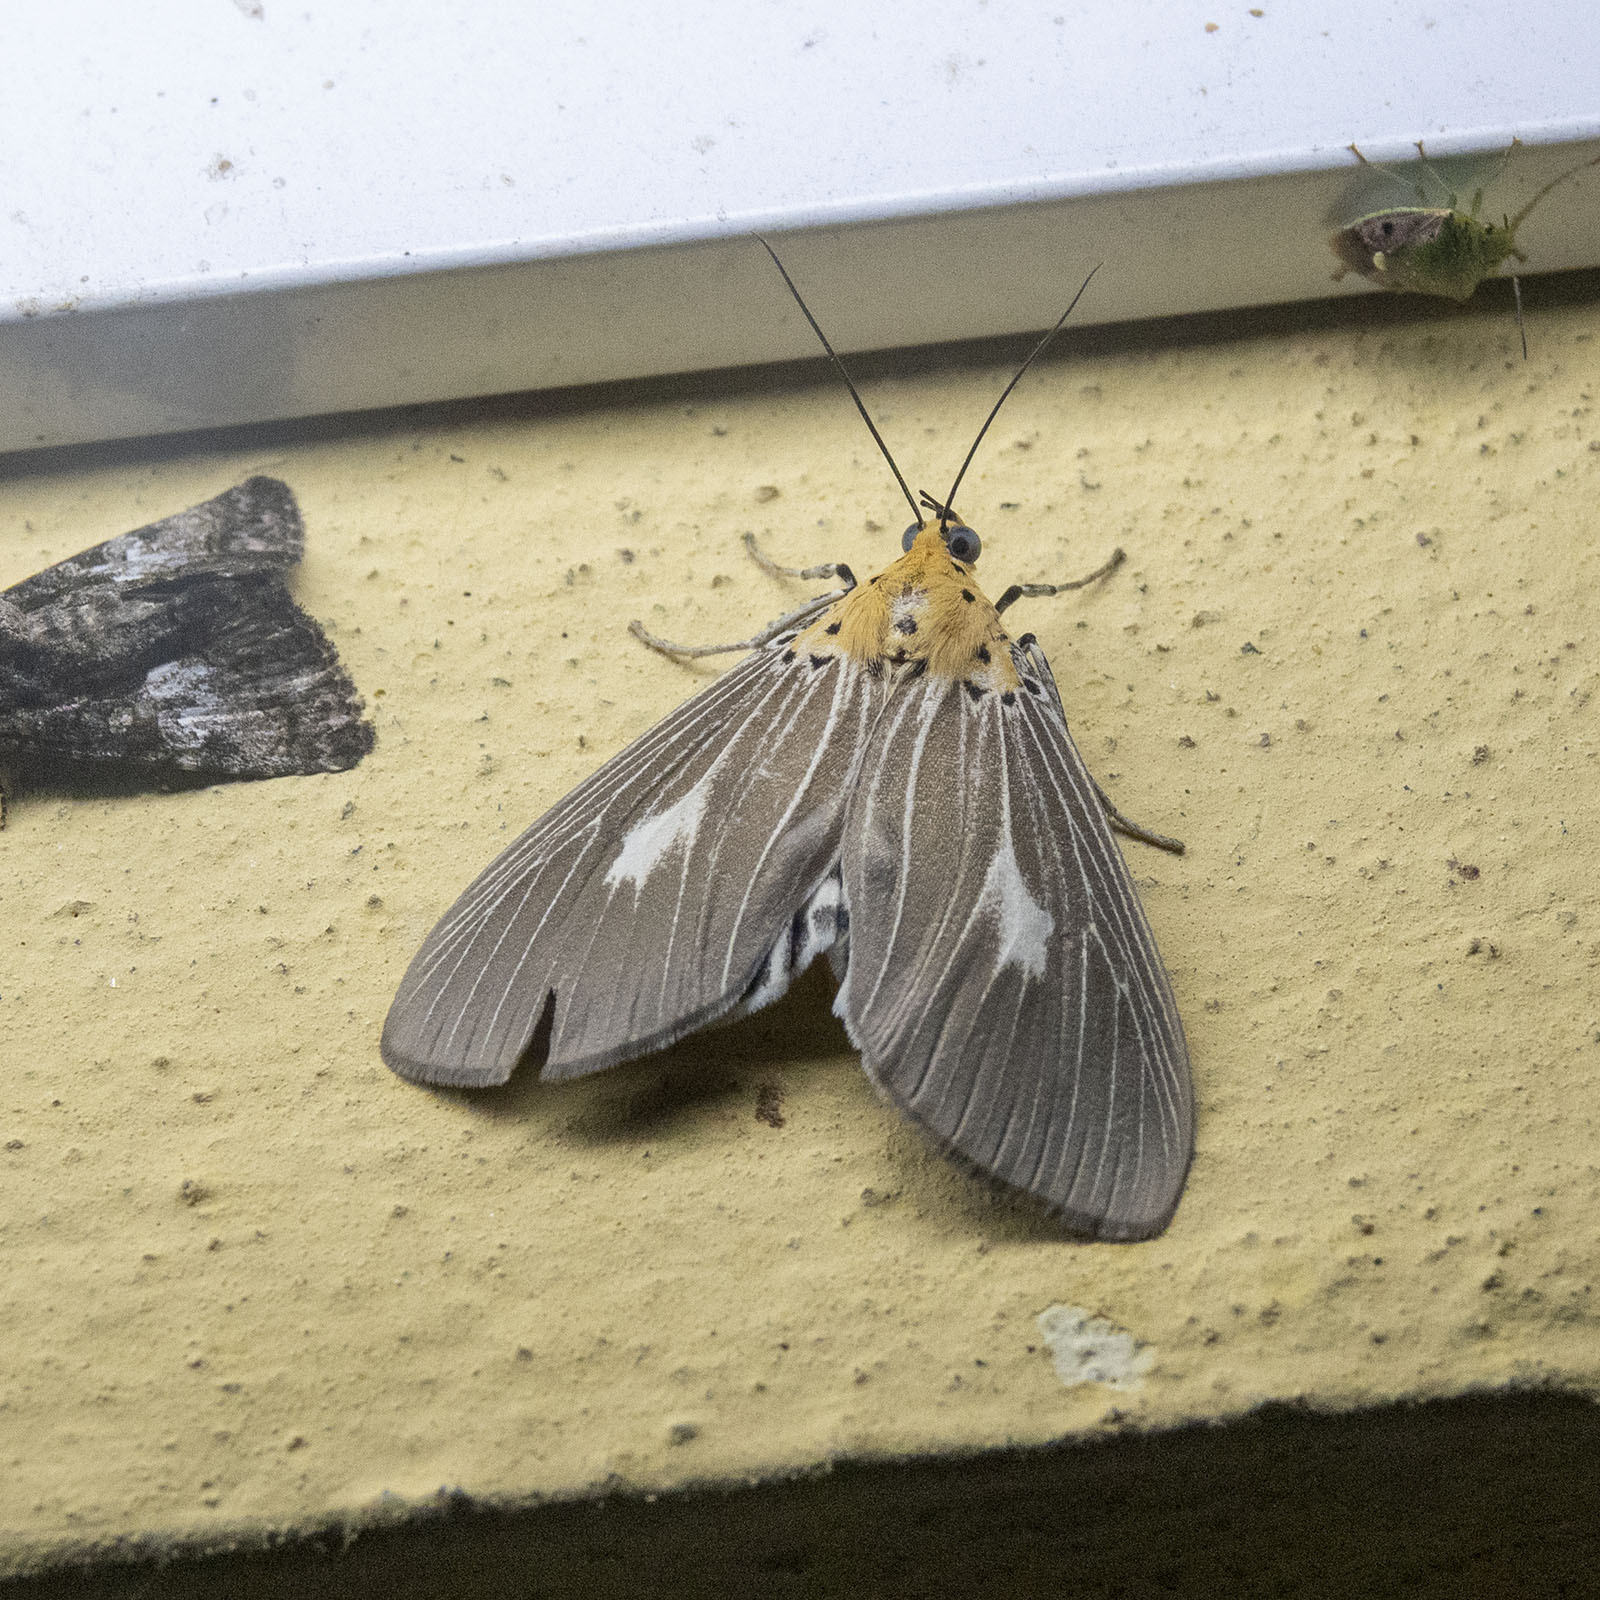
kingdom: Animalia
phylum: Arthropoda
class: Insecta
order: Lepidoptera
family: Erebidae
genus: Asota
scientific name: Asota producta
